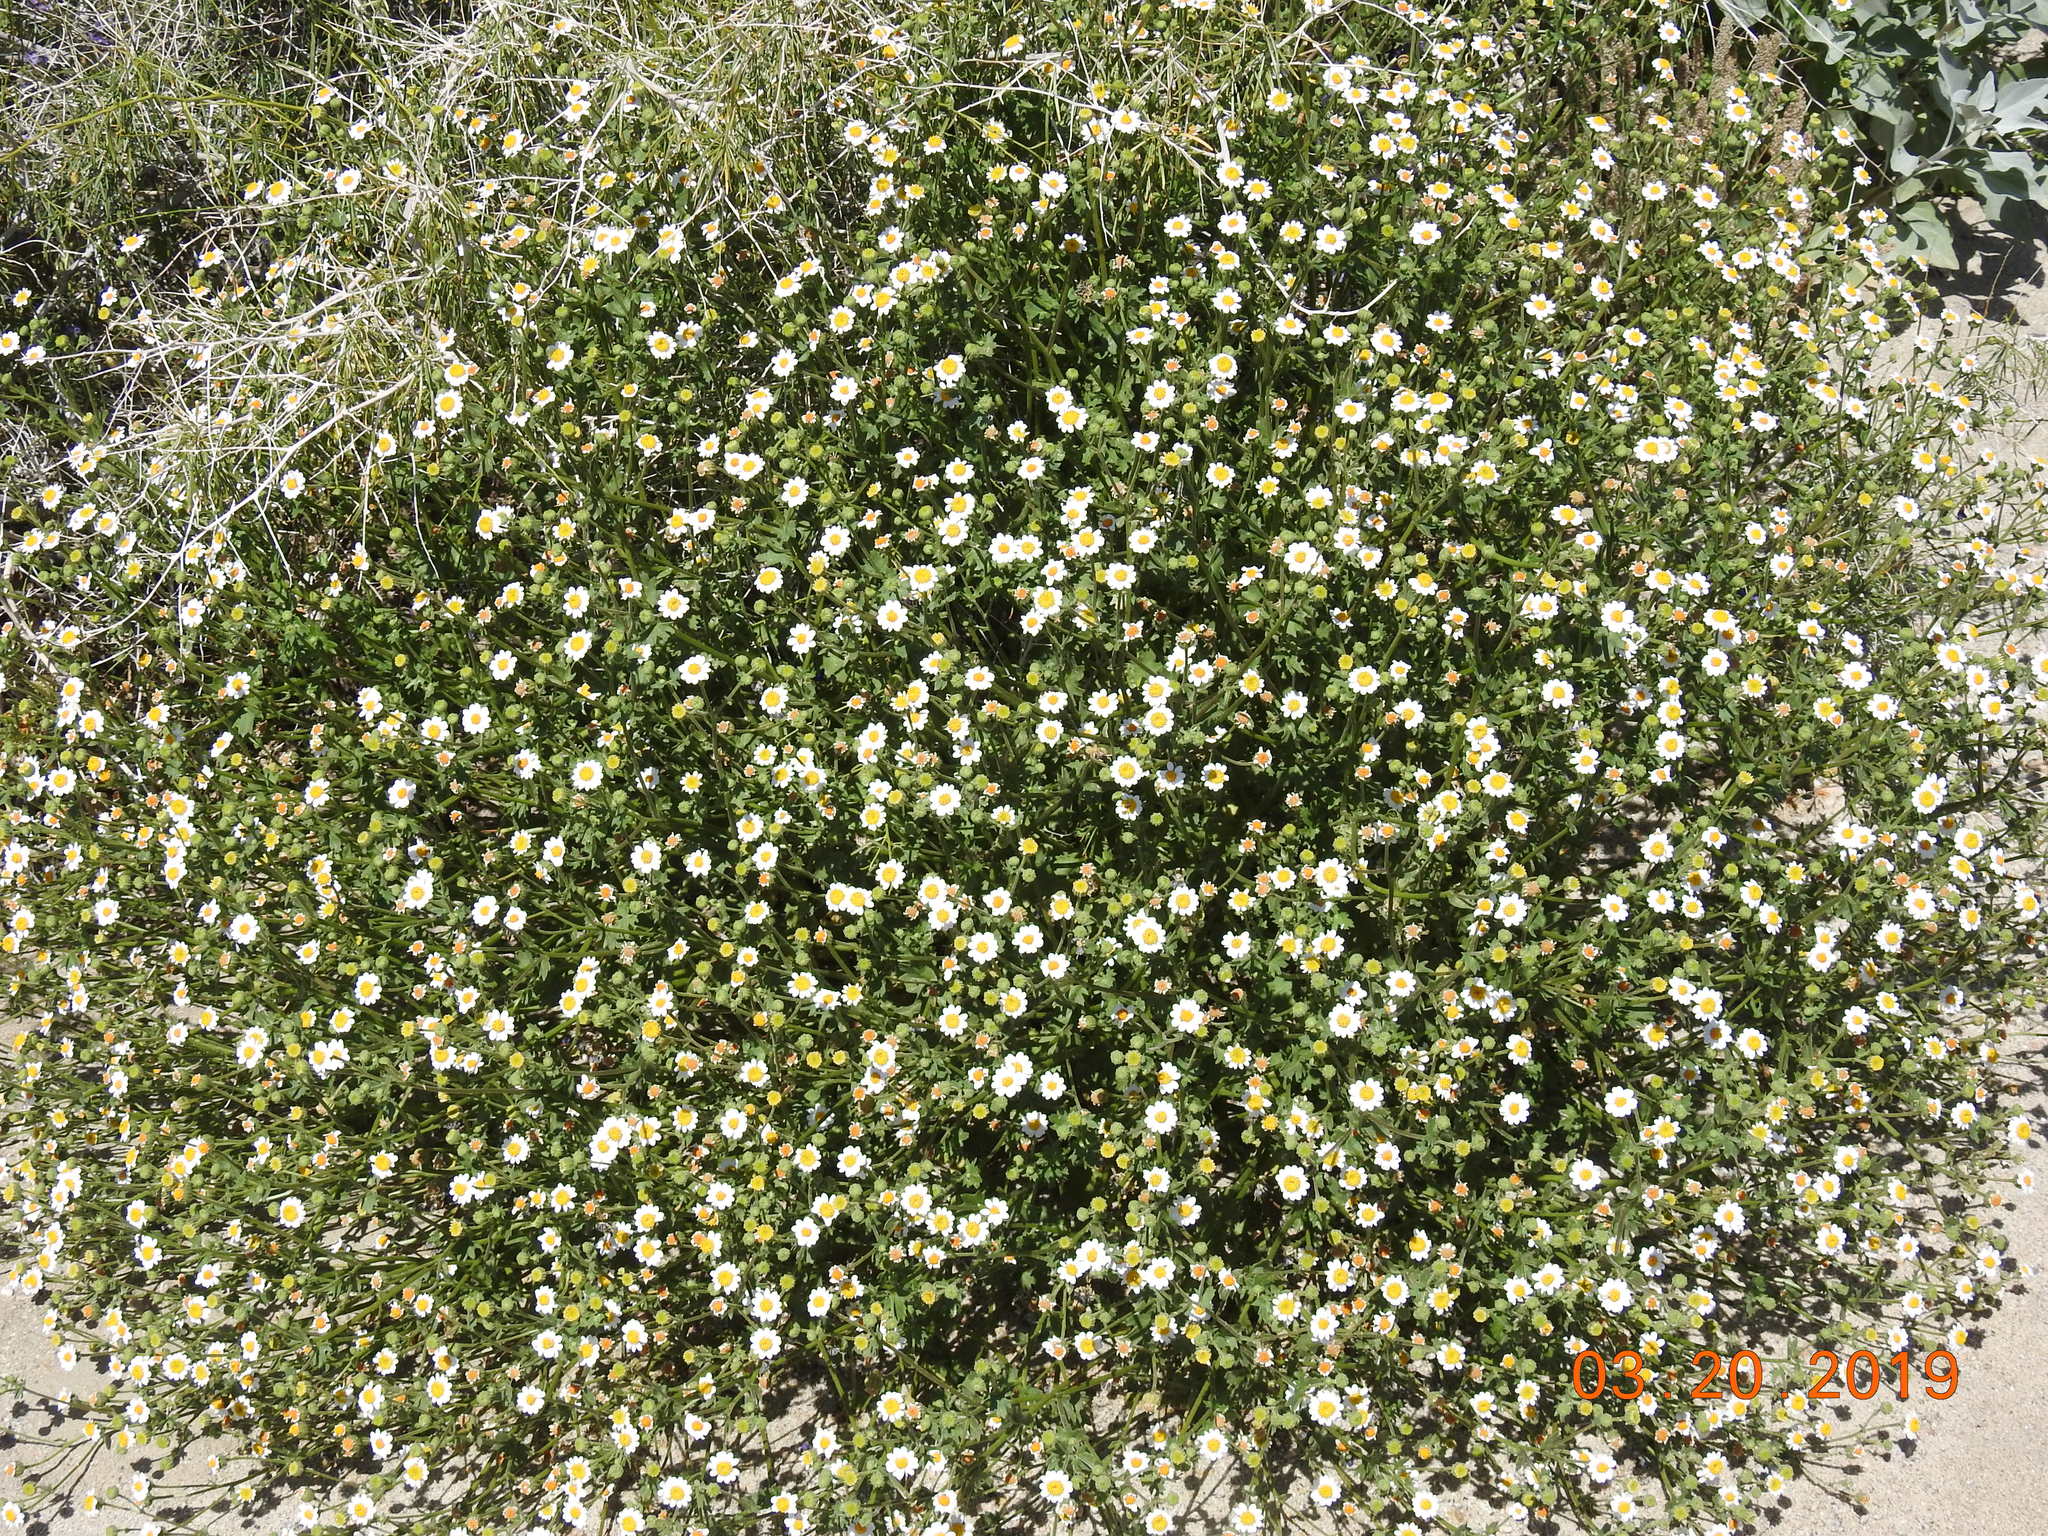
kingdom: Plantae
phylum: Tracheophyta
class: Magnoliopsida
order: Asterales
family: Asteraceae
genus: Laphamia
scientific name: Laphamia emoryi
